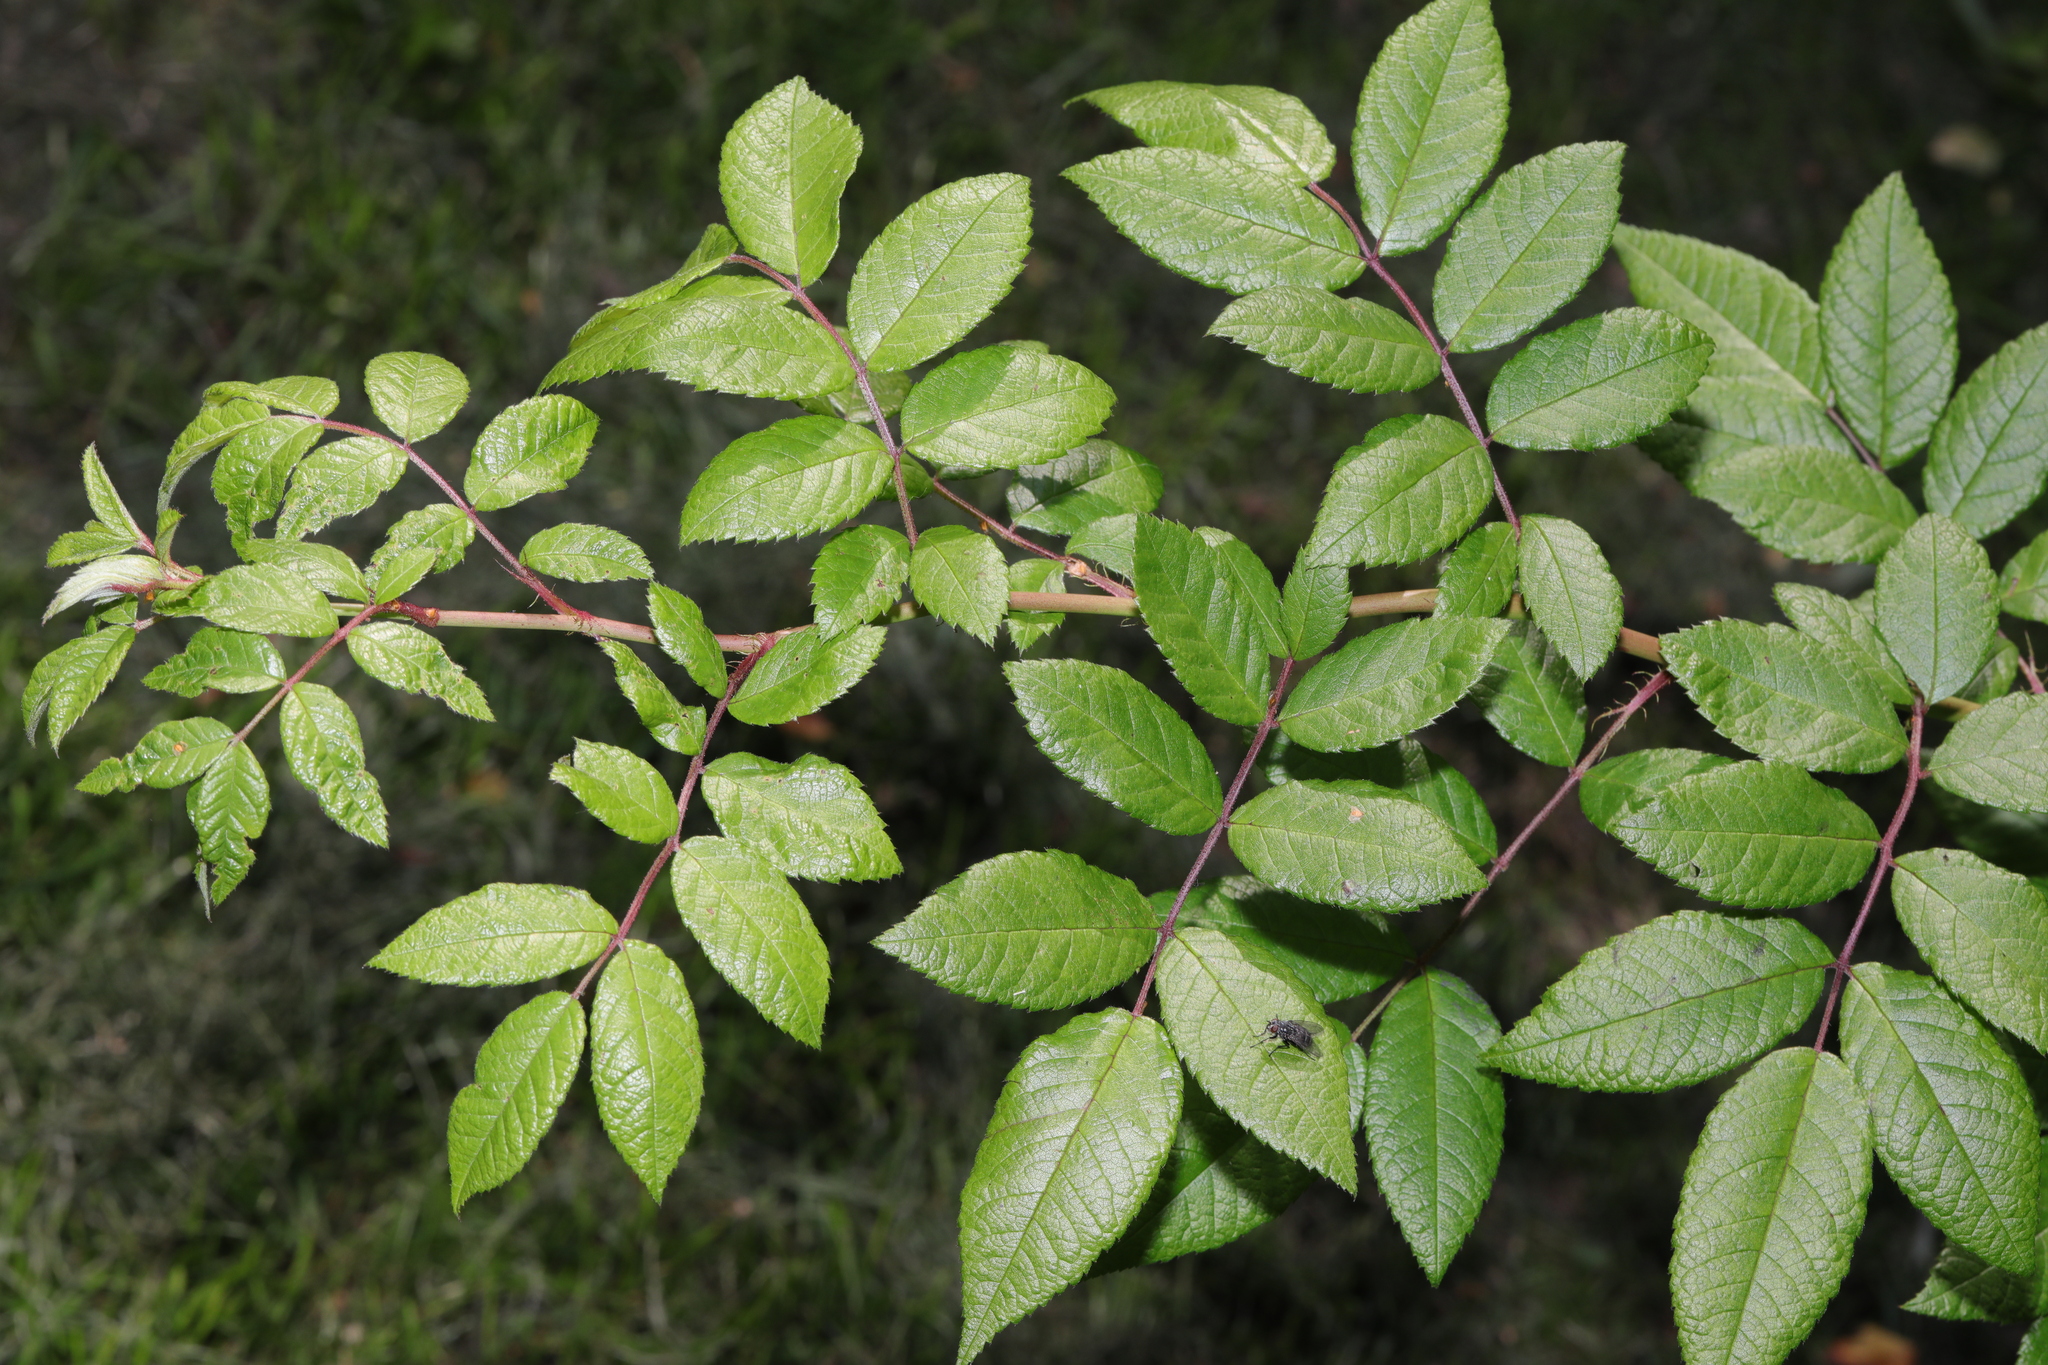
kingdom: Plantae
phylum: Tracheophyta
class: Magnoliopsida
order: Rosales
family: Rosaceae
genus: Rosa
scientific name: Rosa multiflora
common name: Multiflora rose
